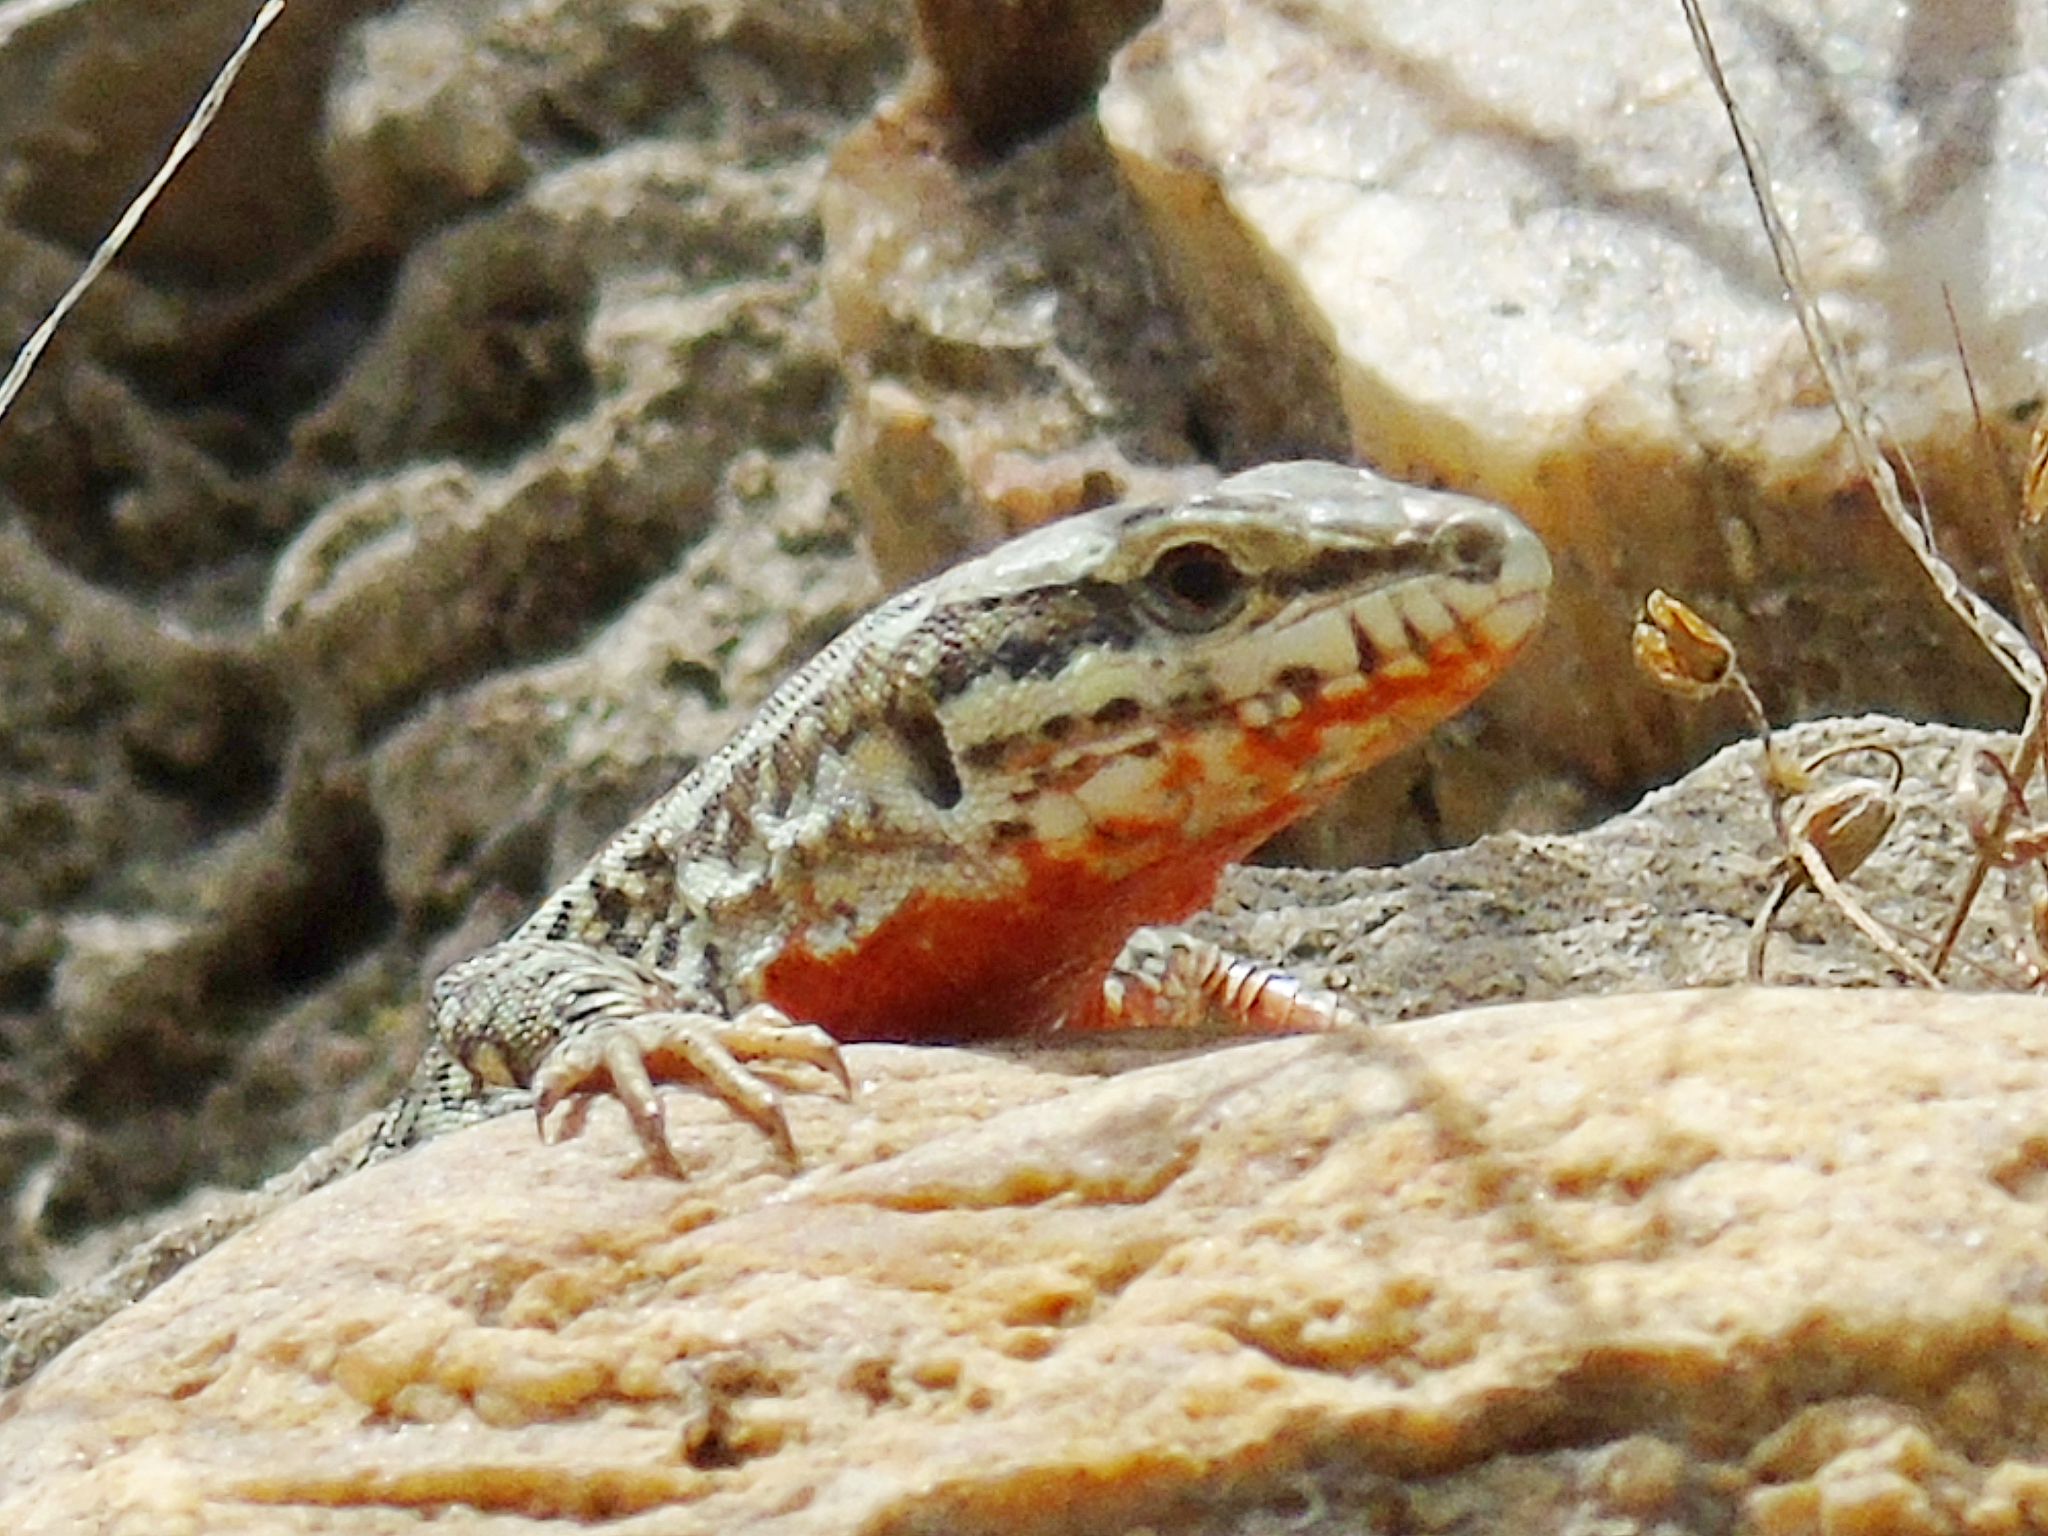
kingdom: Animalia
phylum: Chordata
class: Squamata
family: Lacertidae
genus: Podarcis
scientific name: Podarcis erhardii
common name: Erhard's wall lizard
